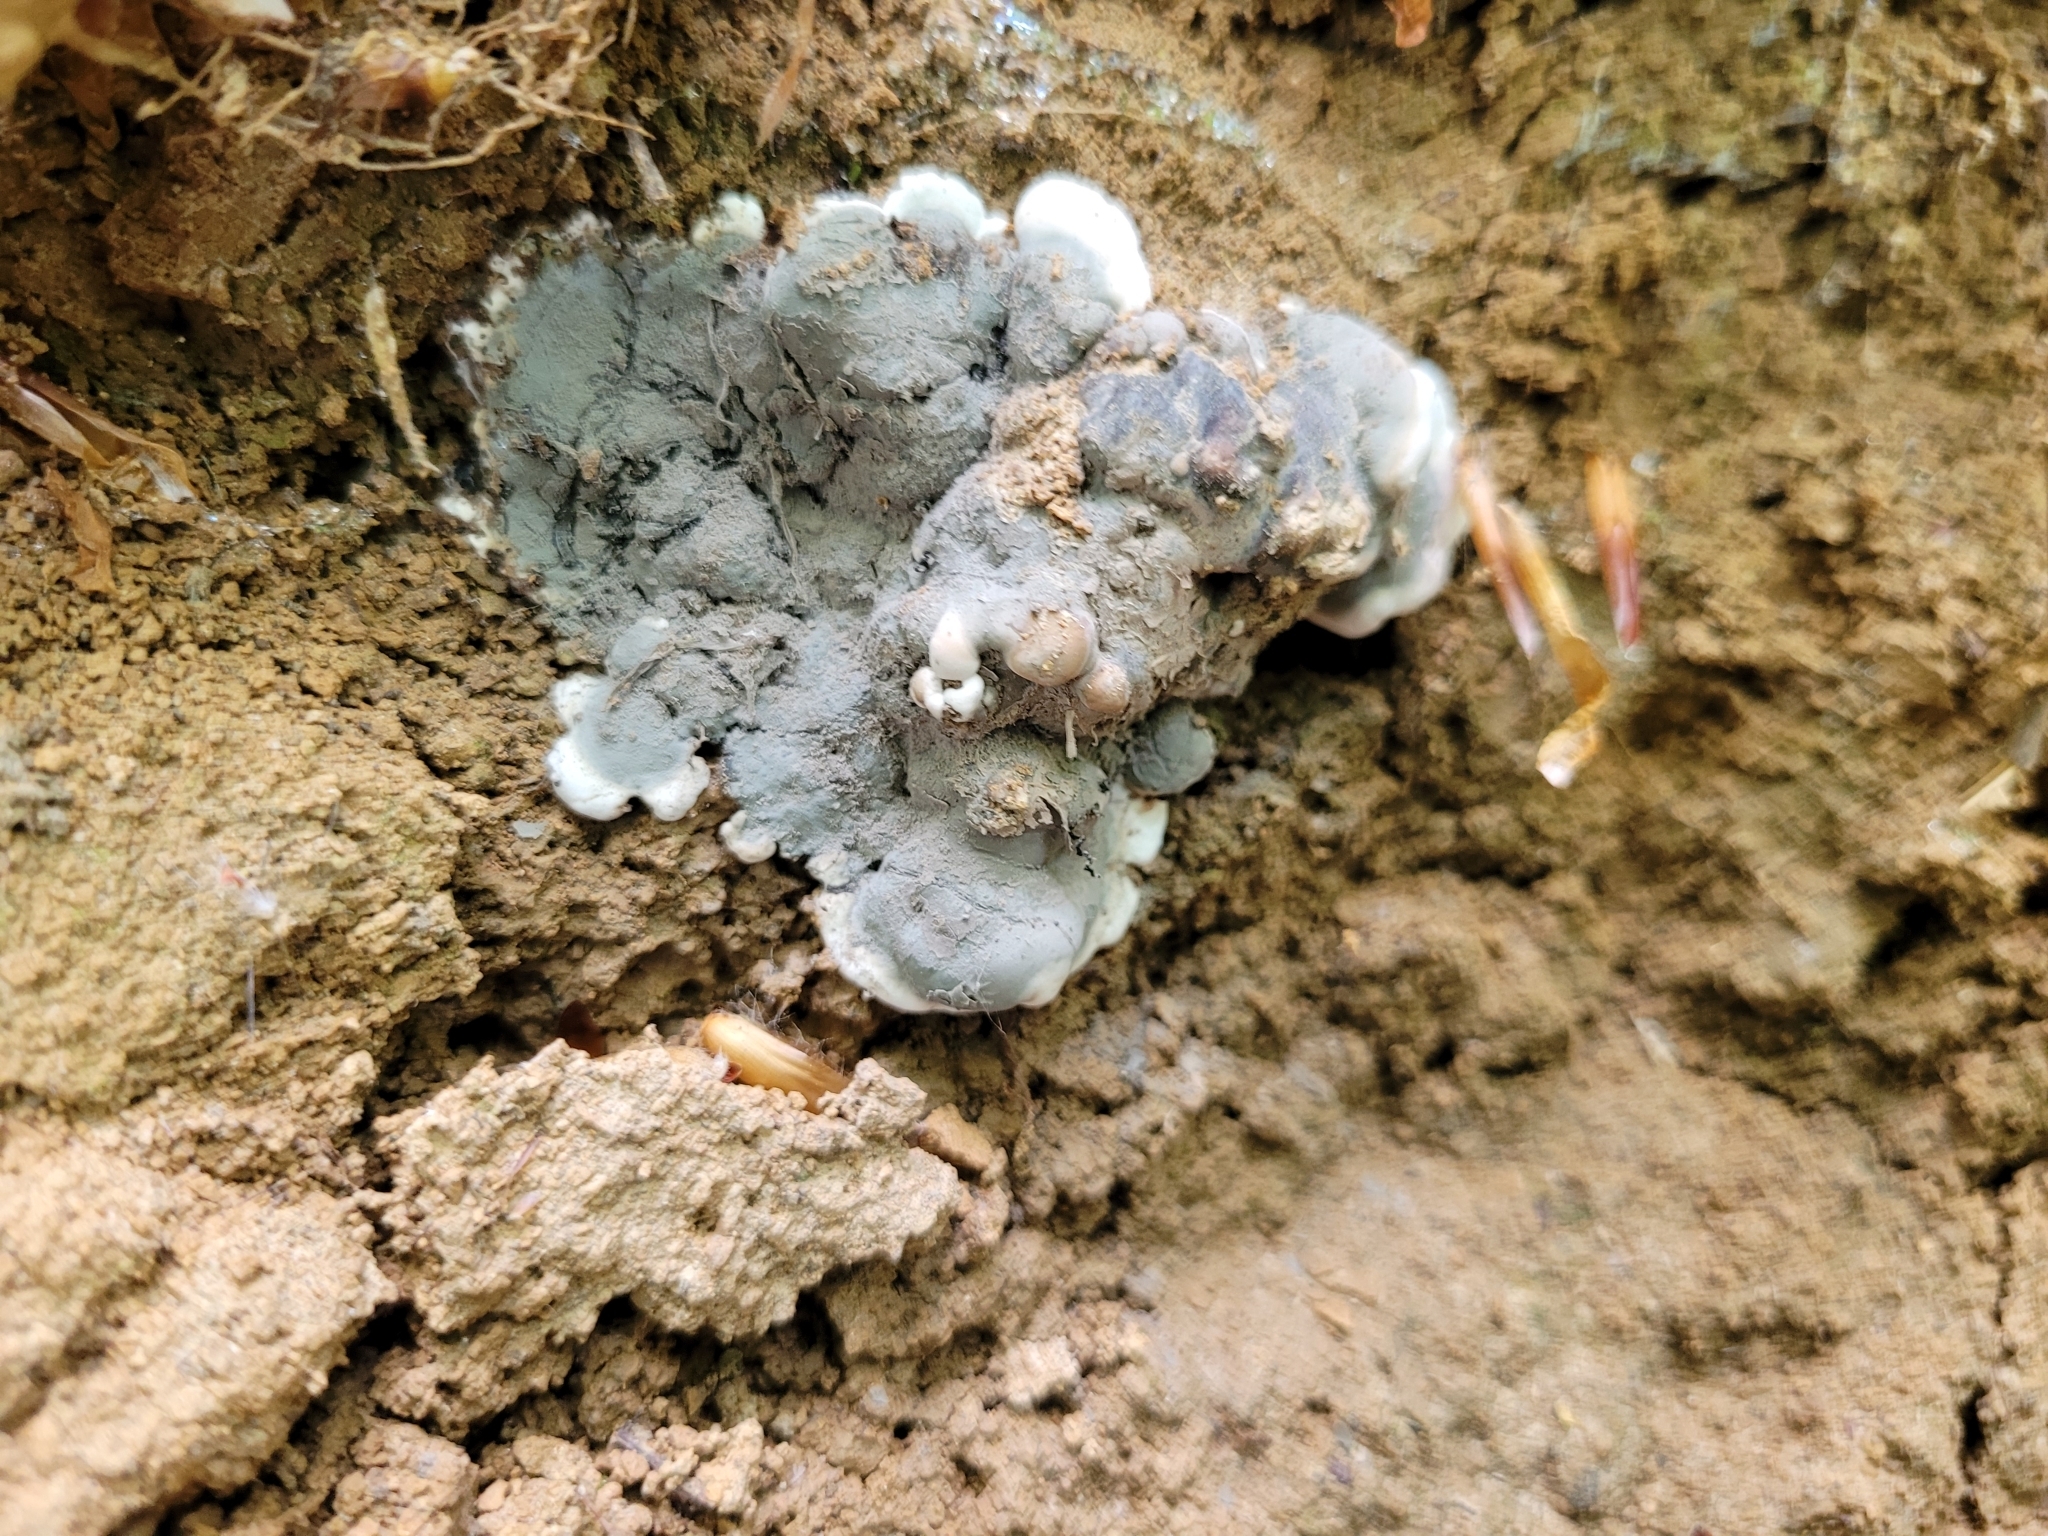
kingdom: Fungi
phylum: Ascomycota
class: Sordariomycetes
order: Xylariales
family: Xylariaceae
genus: Kretzschmaria
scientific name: Kretzschmaria deusta
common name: Brittle cinder
